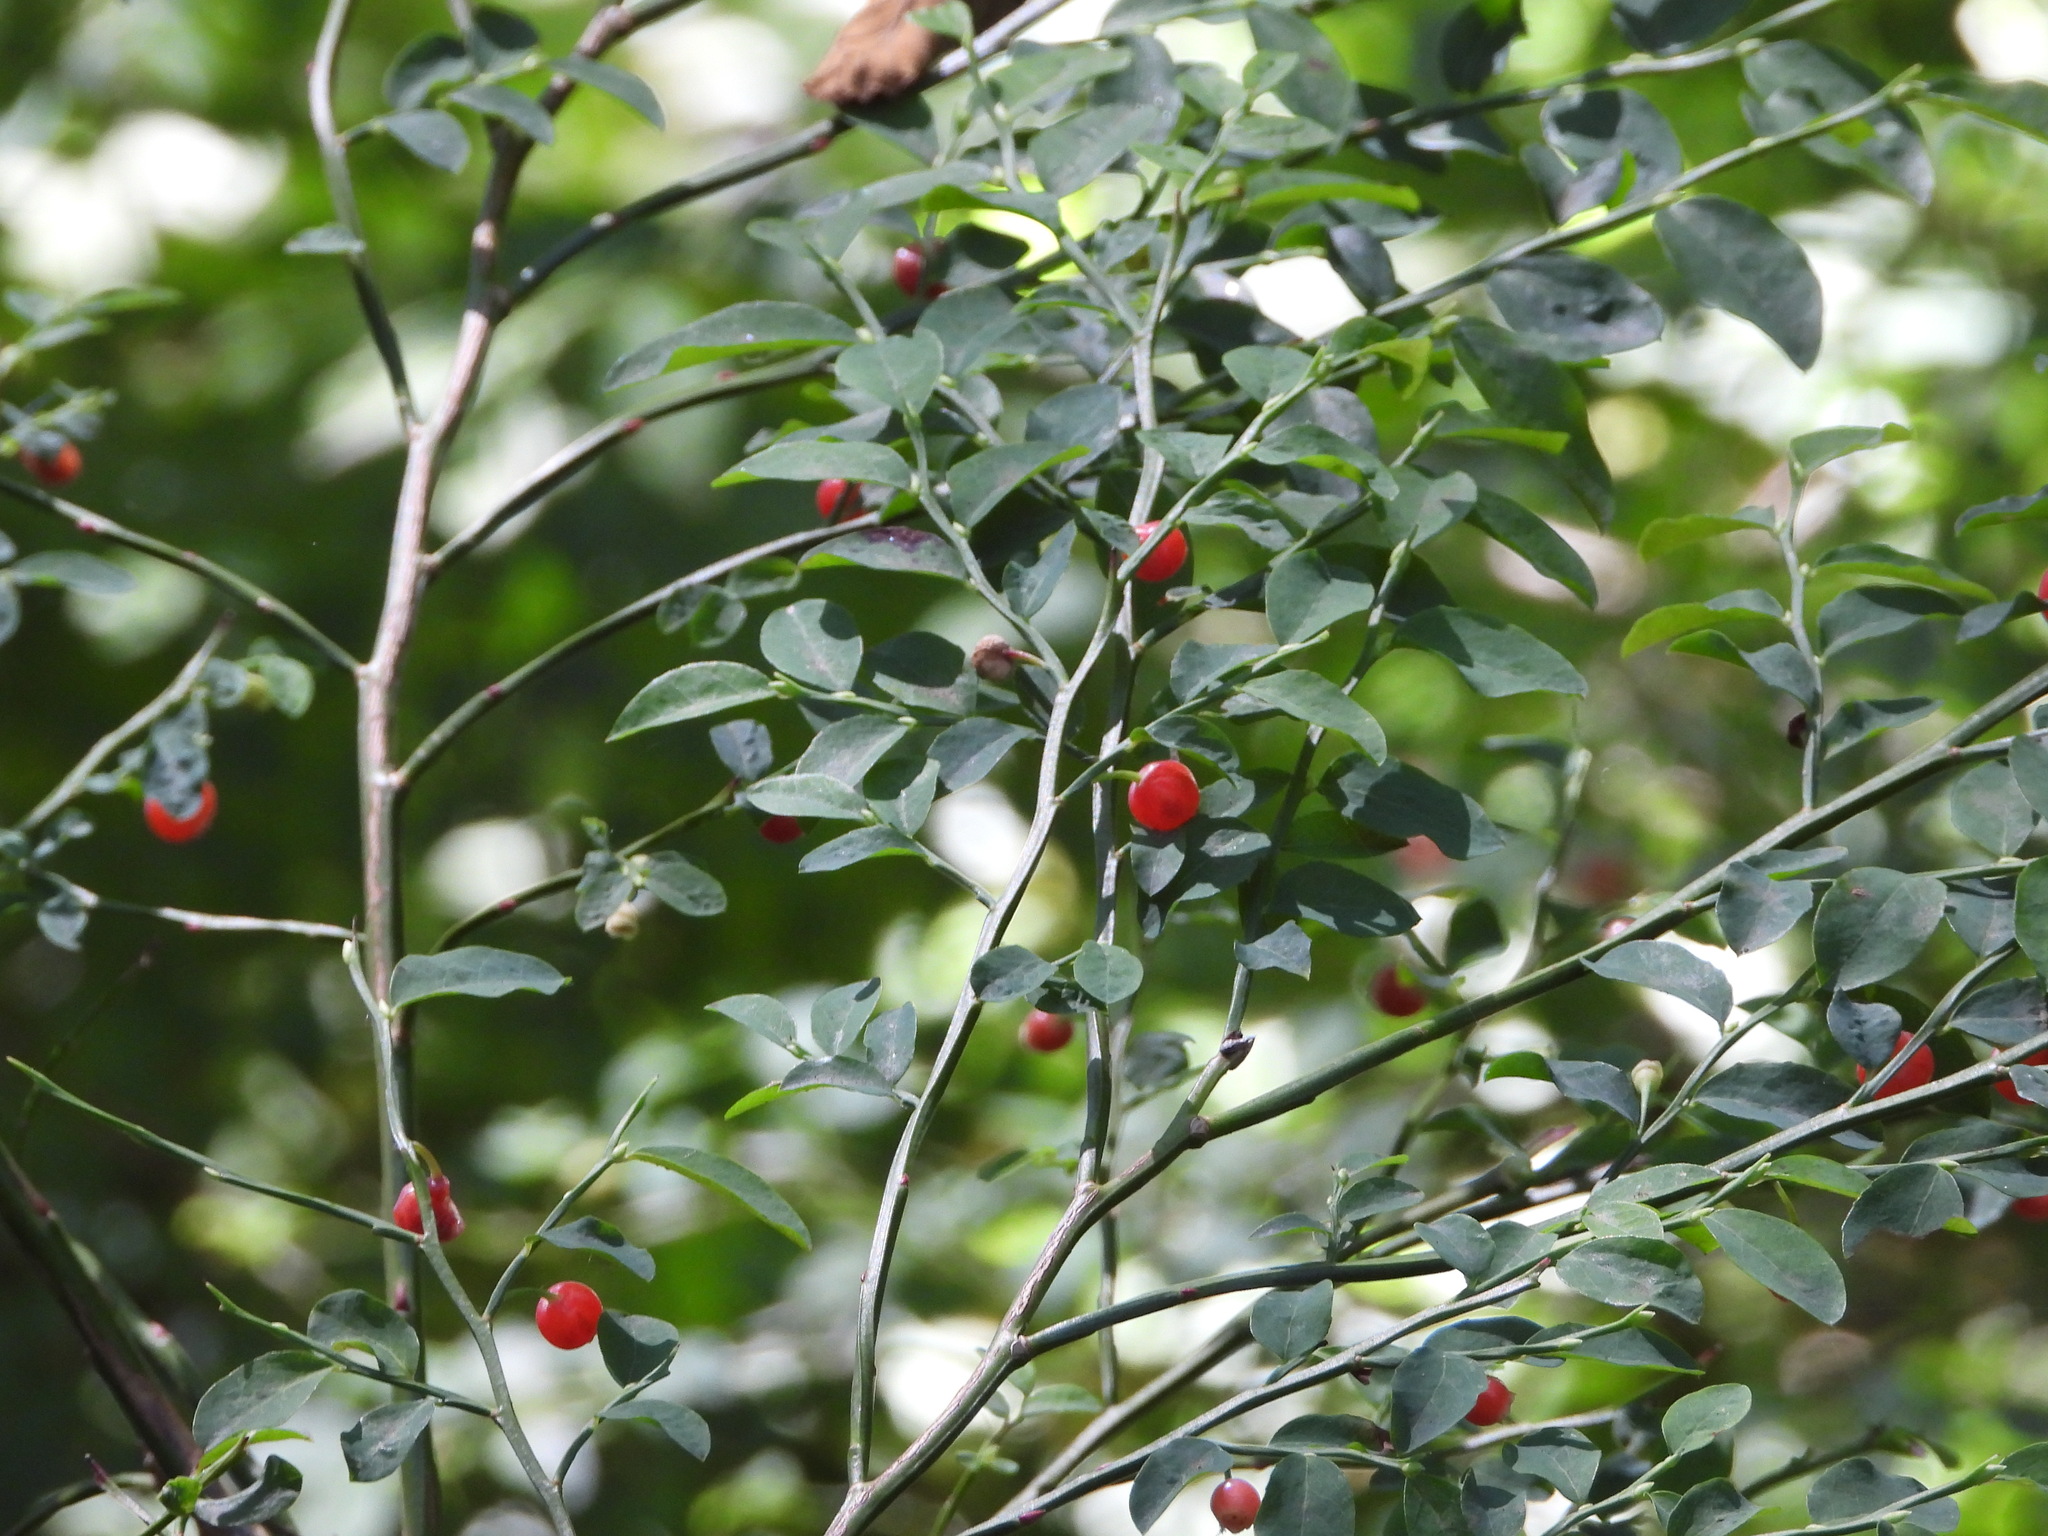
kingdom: Plantae
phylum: Tracheophyta
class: Magnoliopsida
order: Ericales
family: Ericaceae
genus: Vaccinium
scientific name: Vaccinium parvifolium
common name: Red-huckleberry
